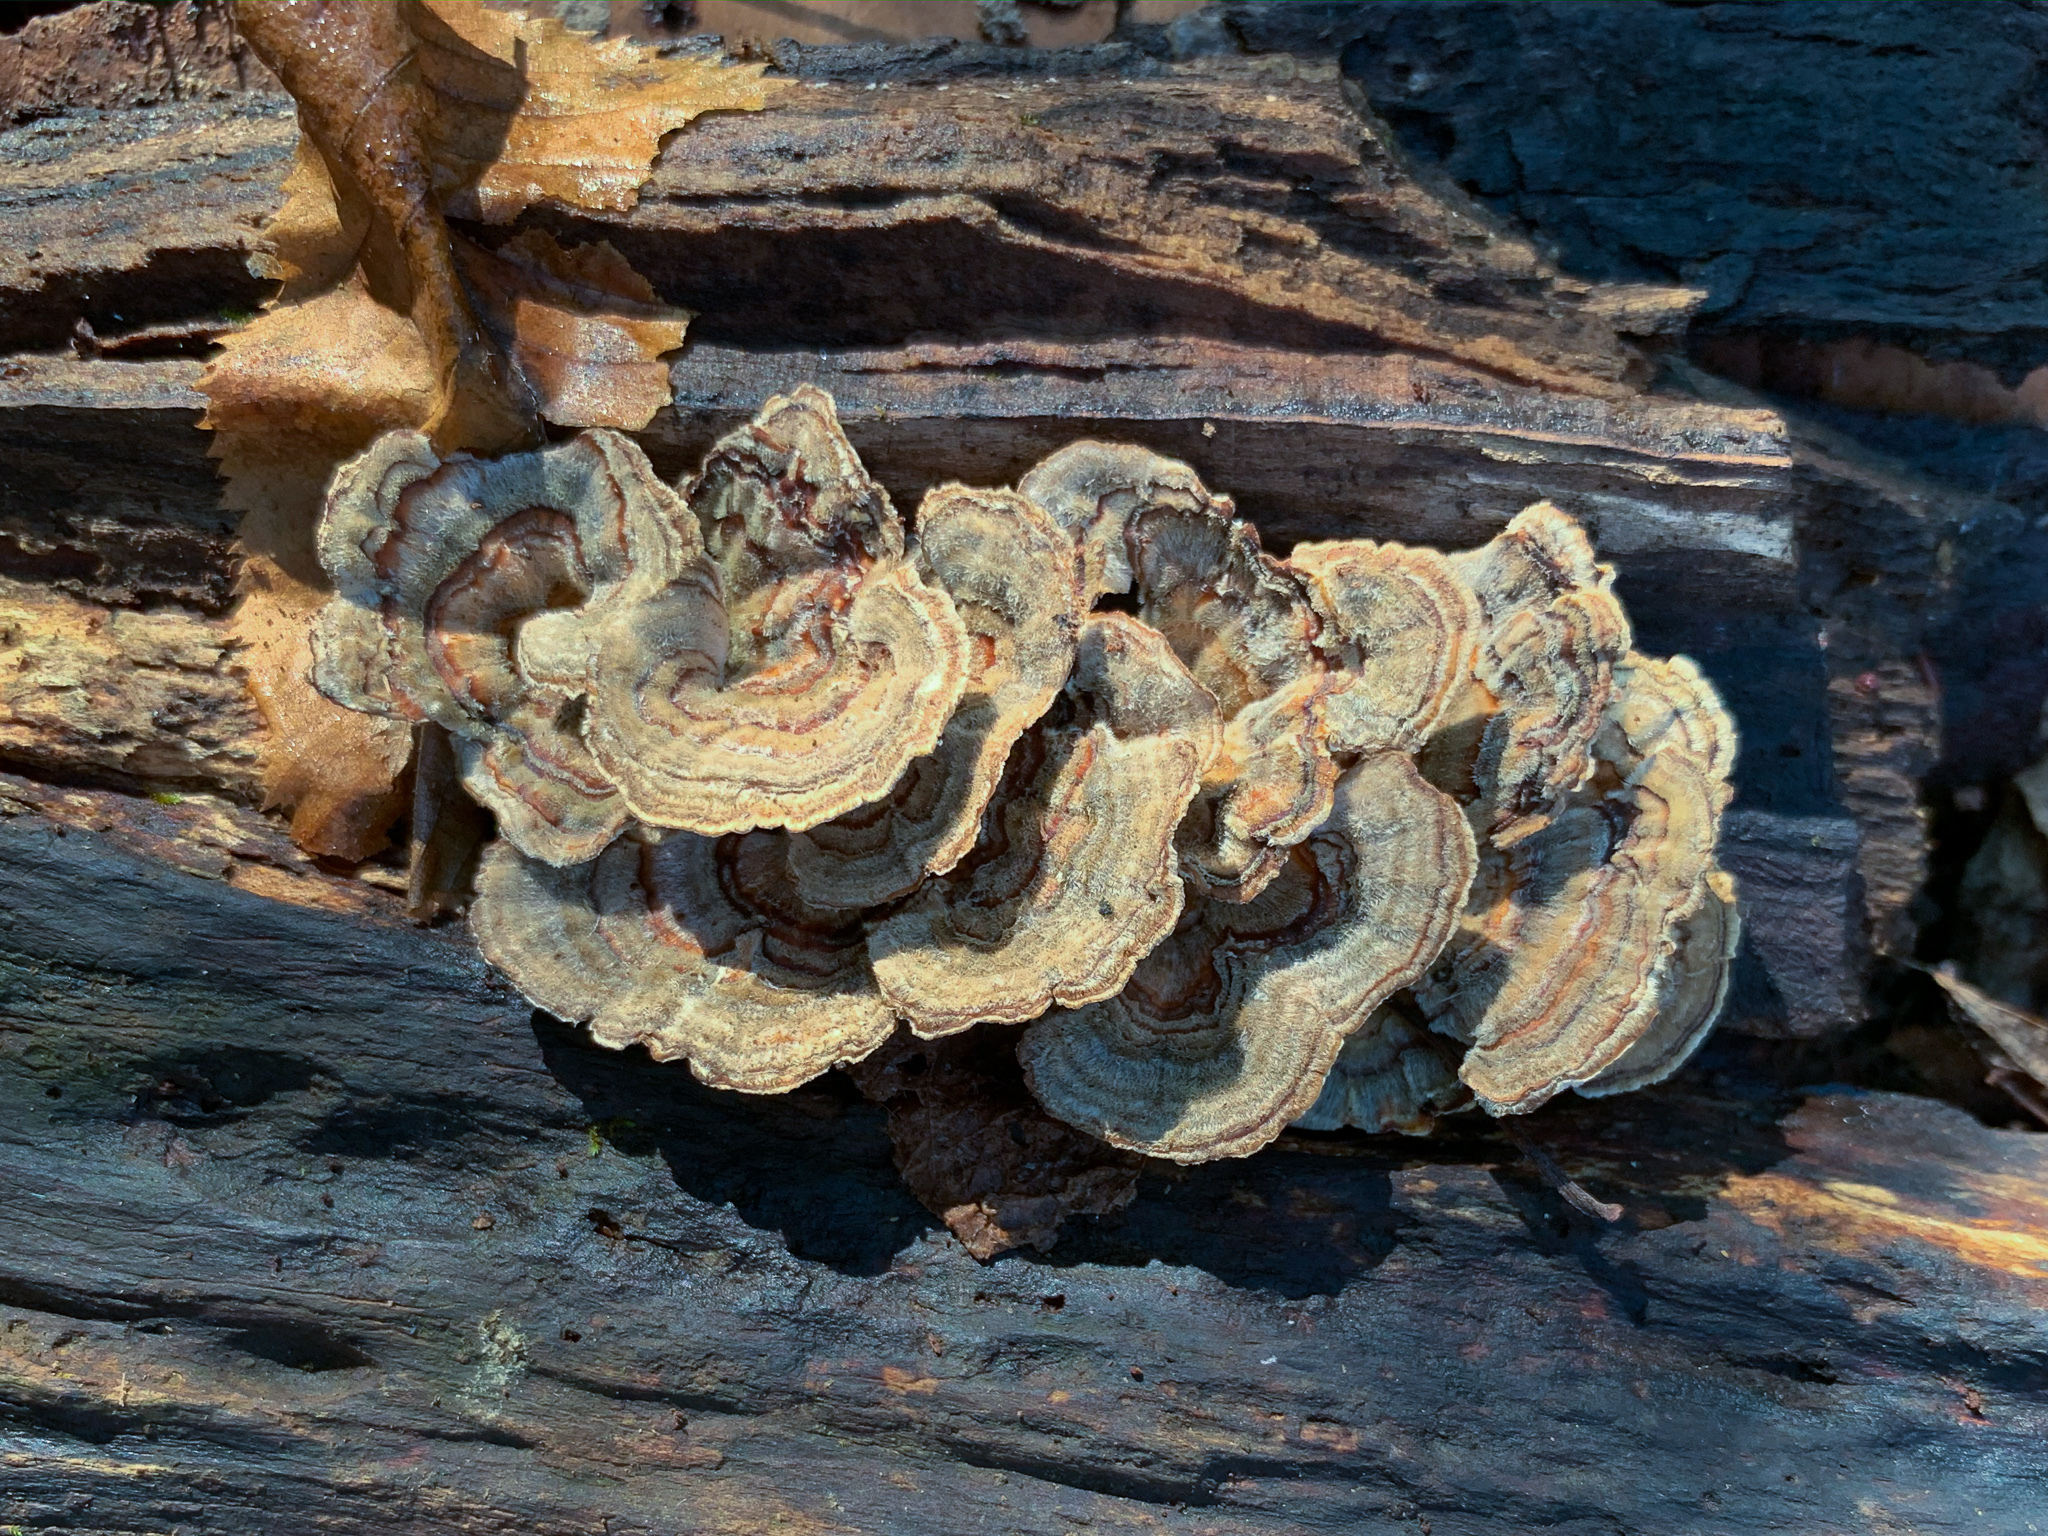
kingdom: Fungi
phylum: Basidiomycota
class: Agaricomycetes
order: Polyporales
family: Polyporaceae
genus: Trametes
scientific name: Trametes versicolor
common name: Turkeytail
